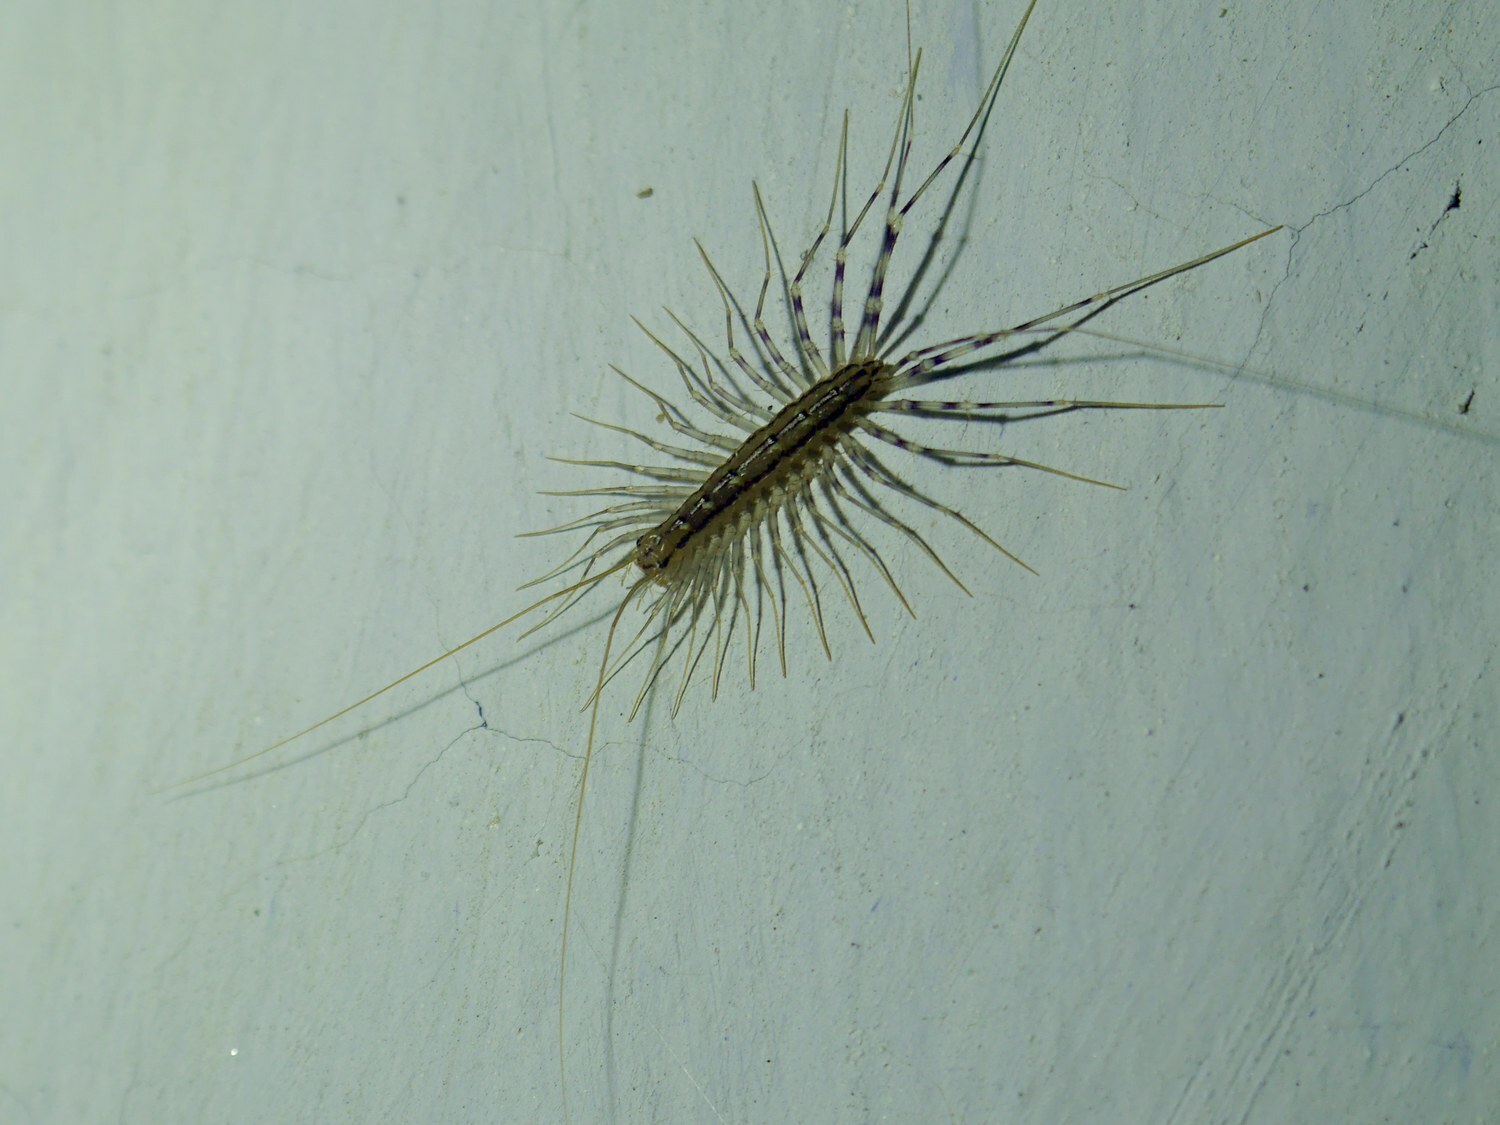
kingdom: Animalia
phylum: Arthropoda
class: Chilopoda
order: Scutigeromorpha
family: Scutigeridae
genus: Scutigera
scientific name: Scutigera coleoptrata
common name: House centipede
